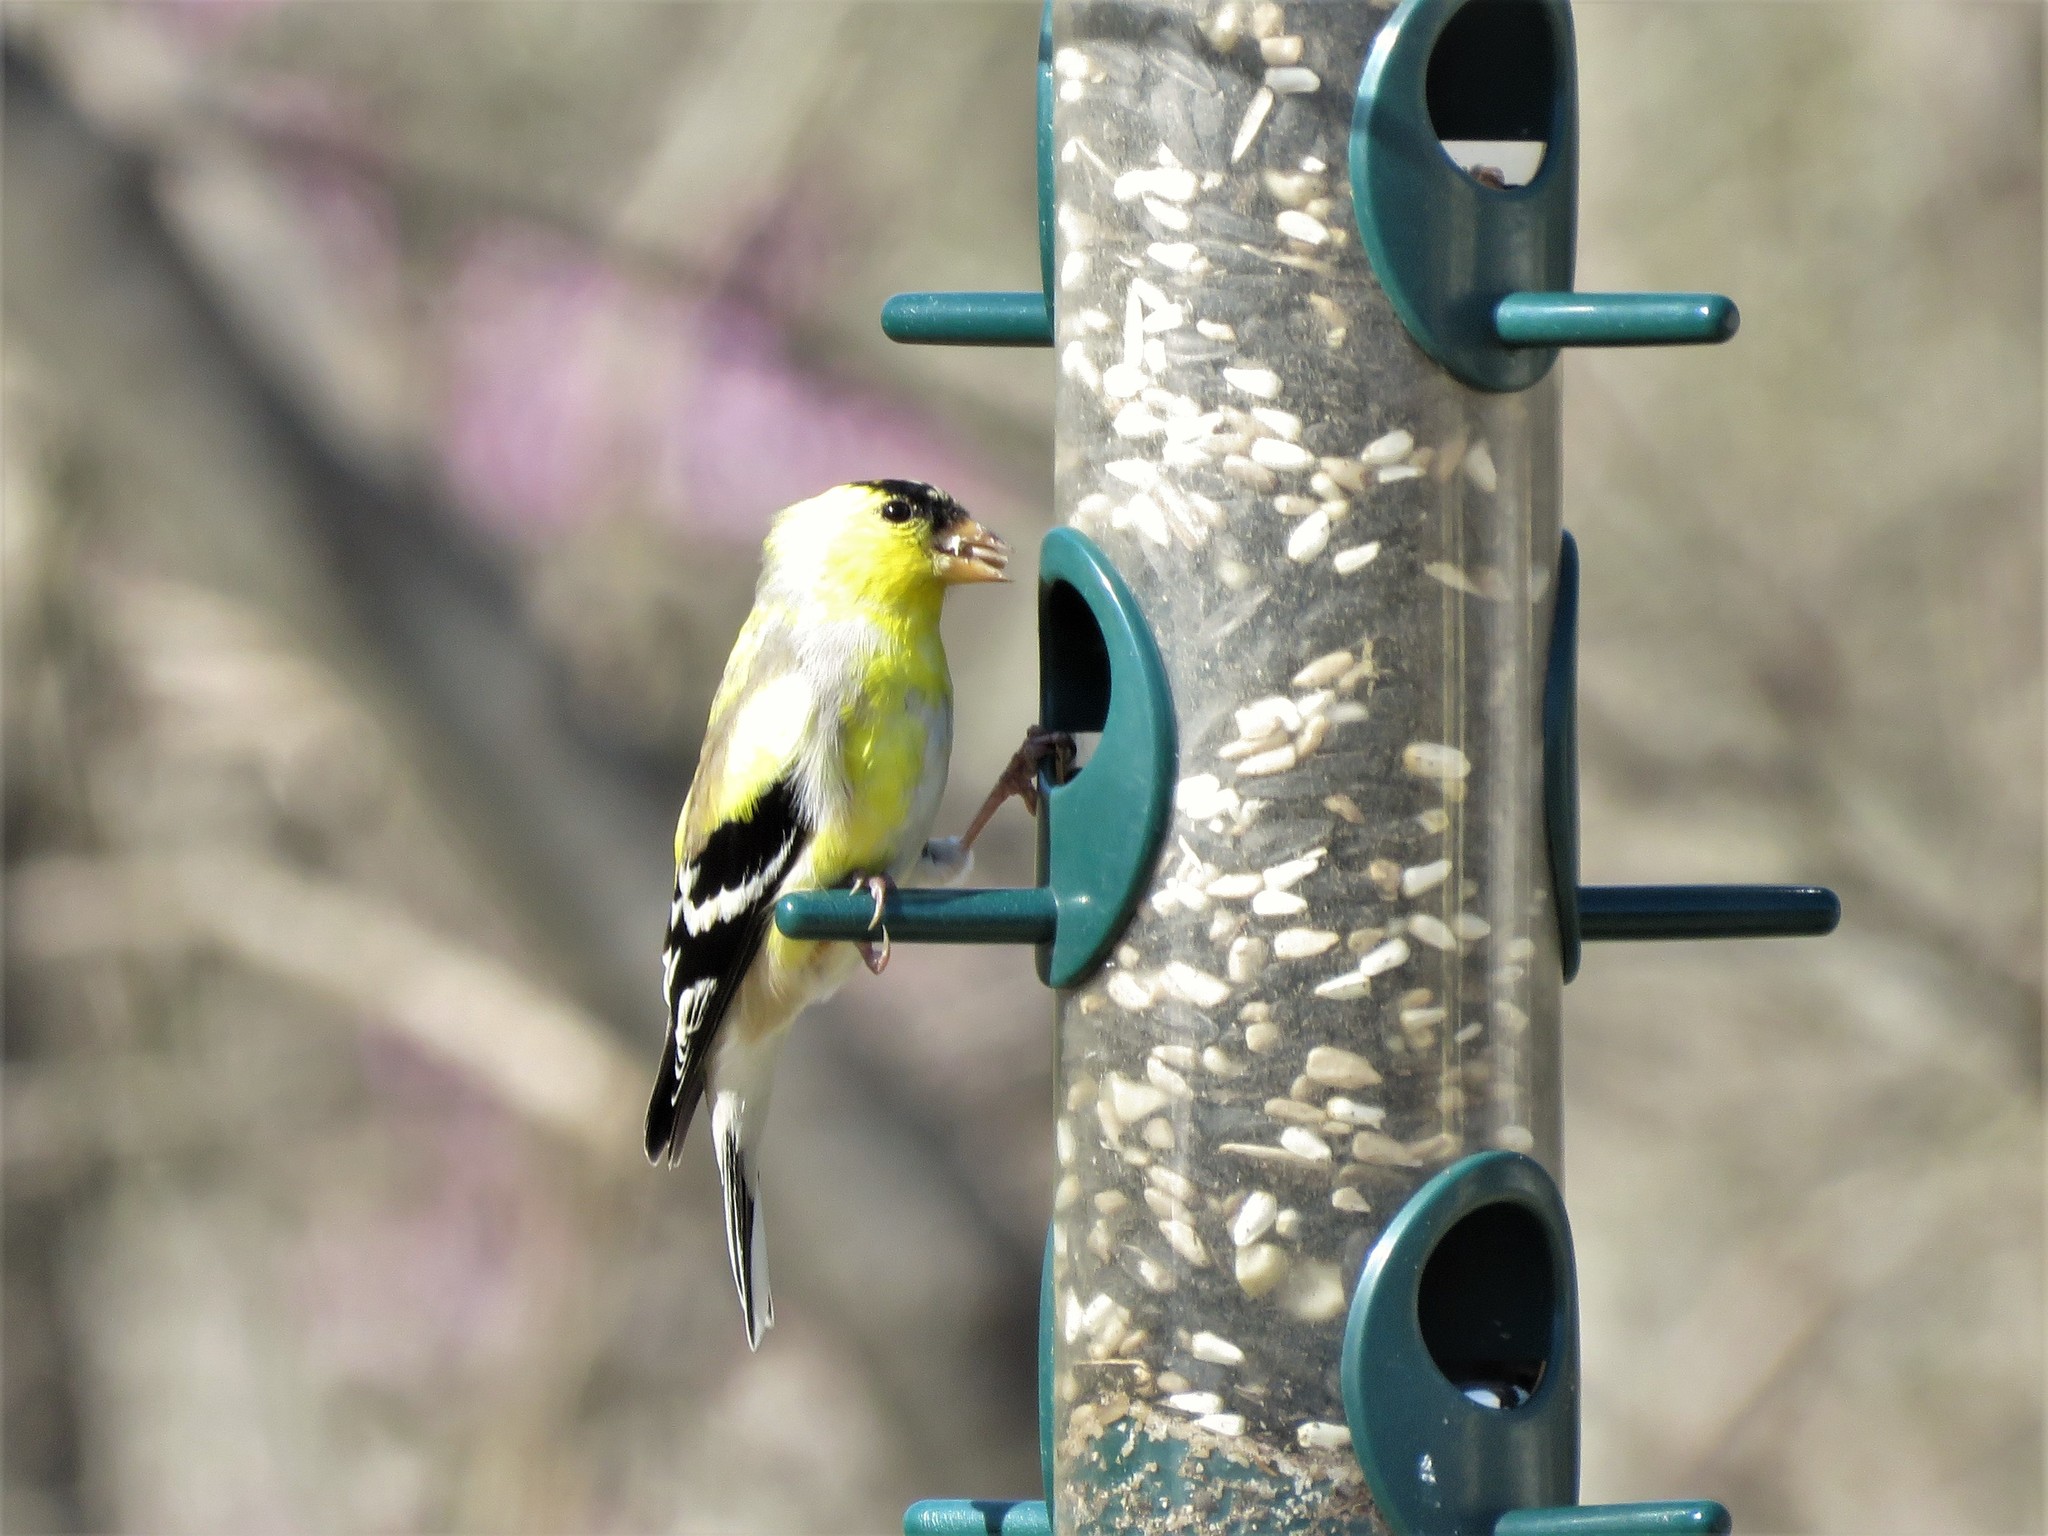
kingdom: Animalia
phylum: Chordata
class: Aves
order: Passeriformes
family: Fringillidae
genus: Spinus
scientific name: Spinus tristis
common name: American goldfinch
